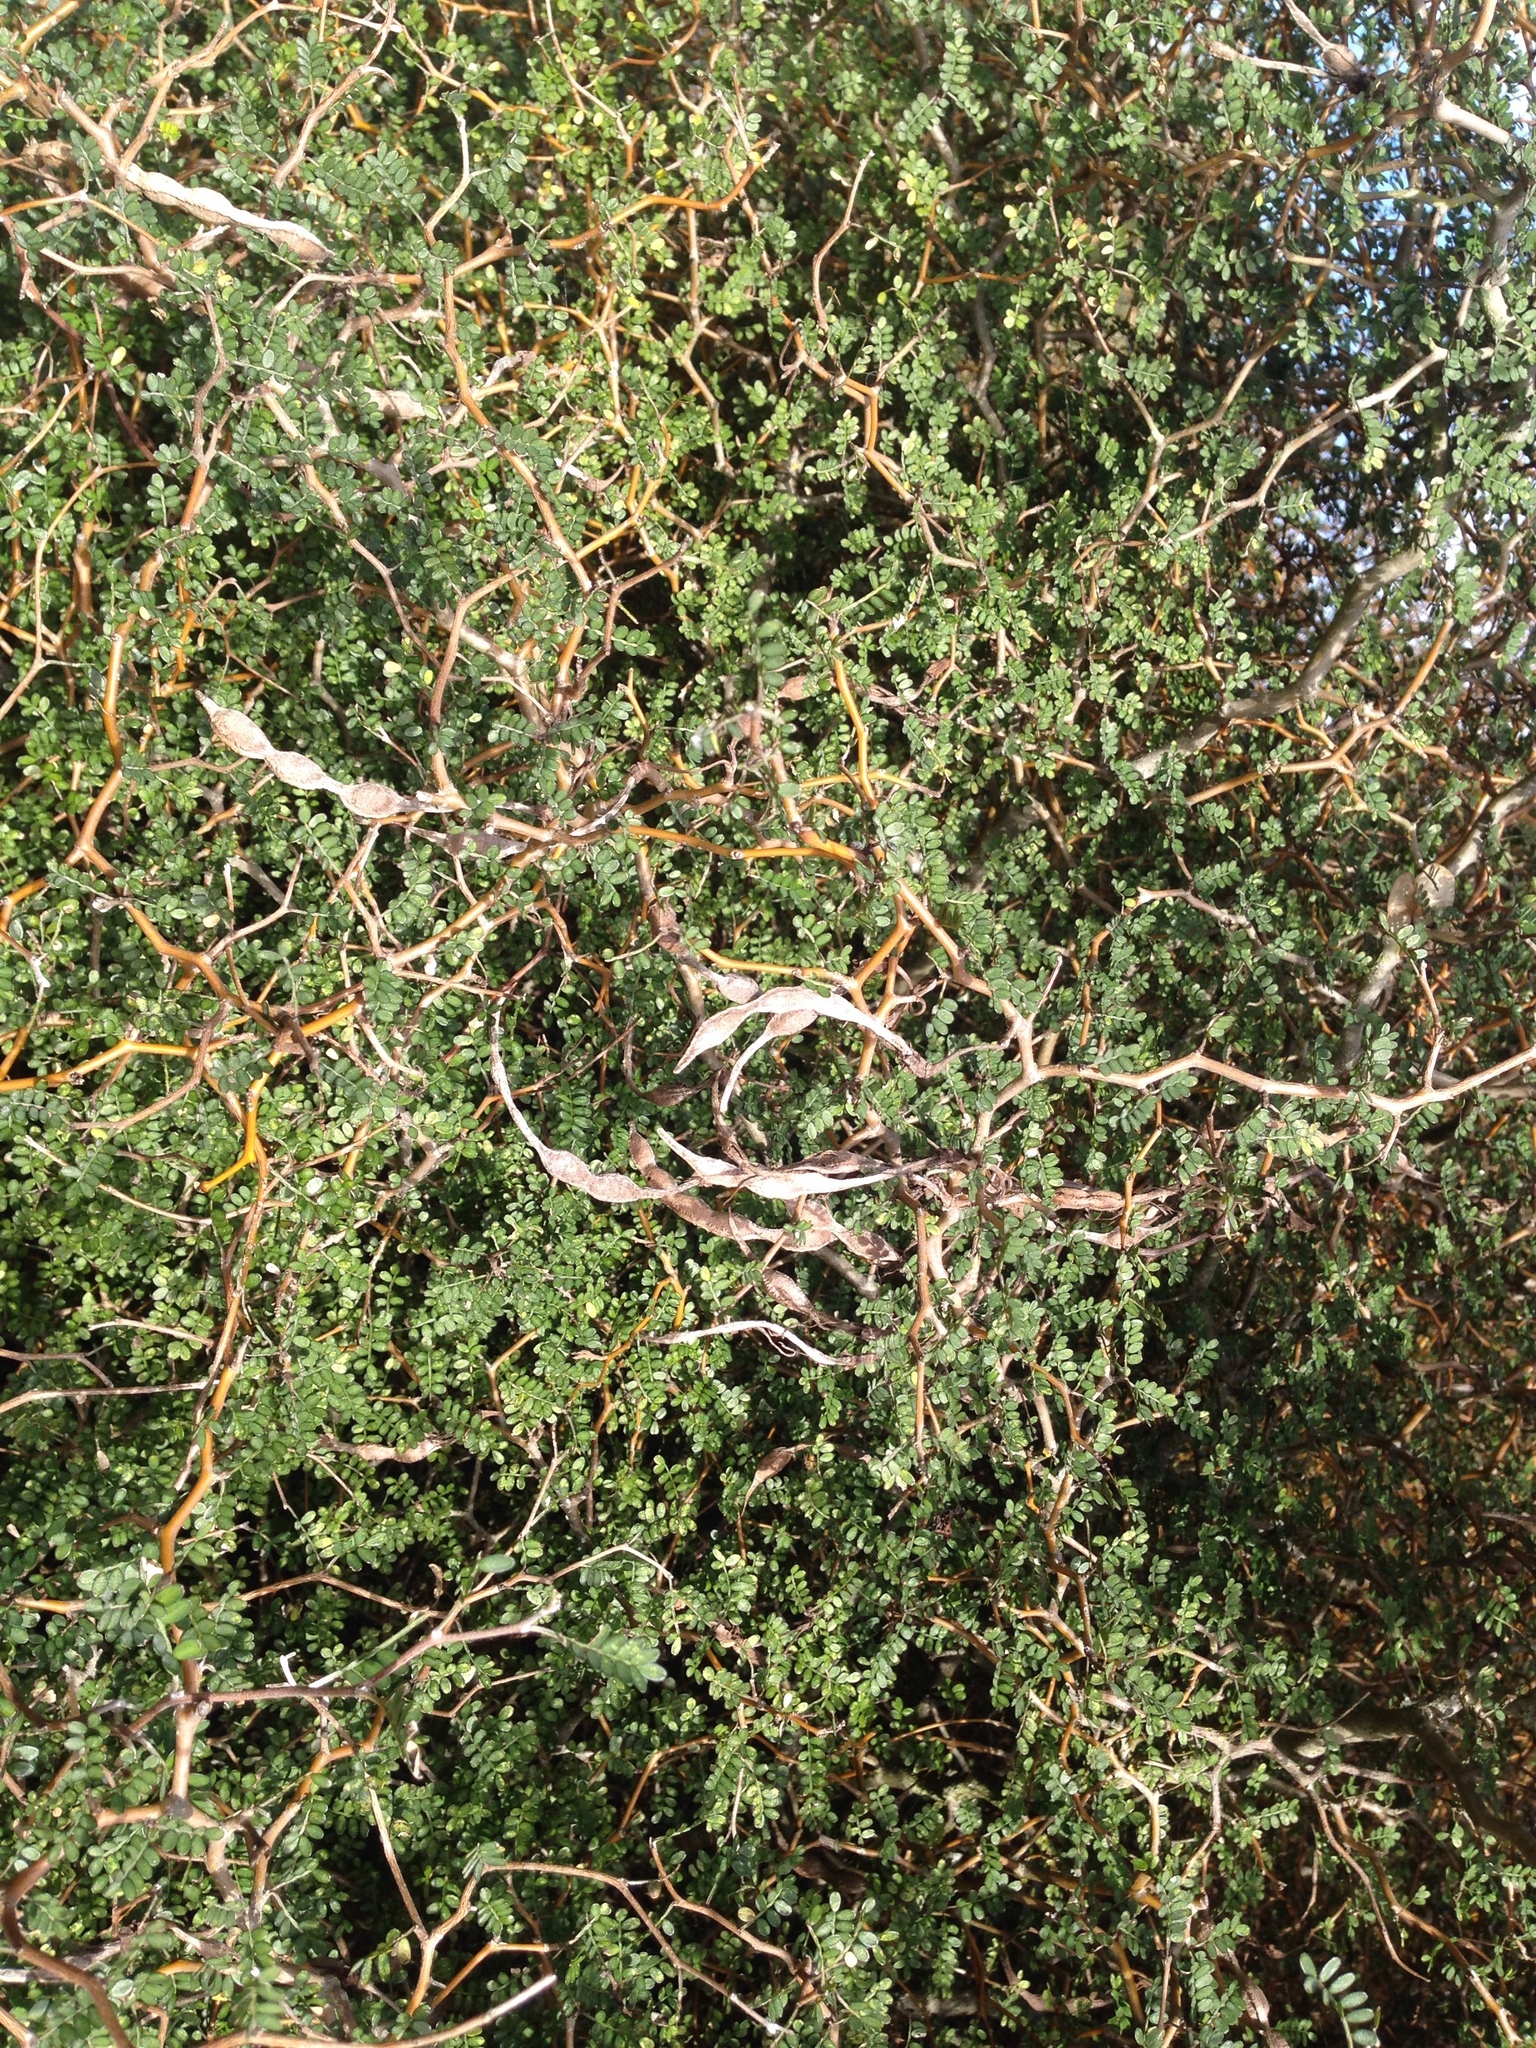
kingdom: Plantae
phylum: Tracheophyta
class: Magnoliopsida
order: Fabales
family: Fabaceae
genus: Sophora
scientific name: Sophora prostrata
